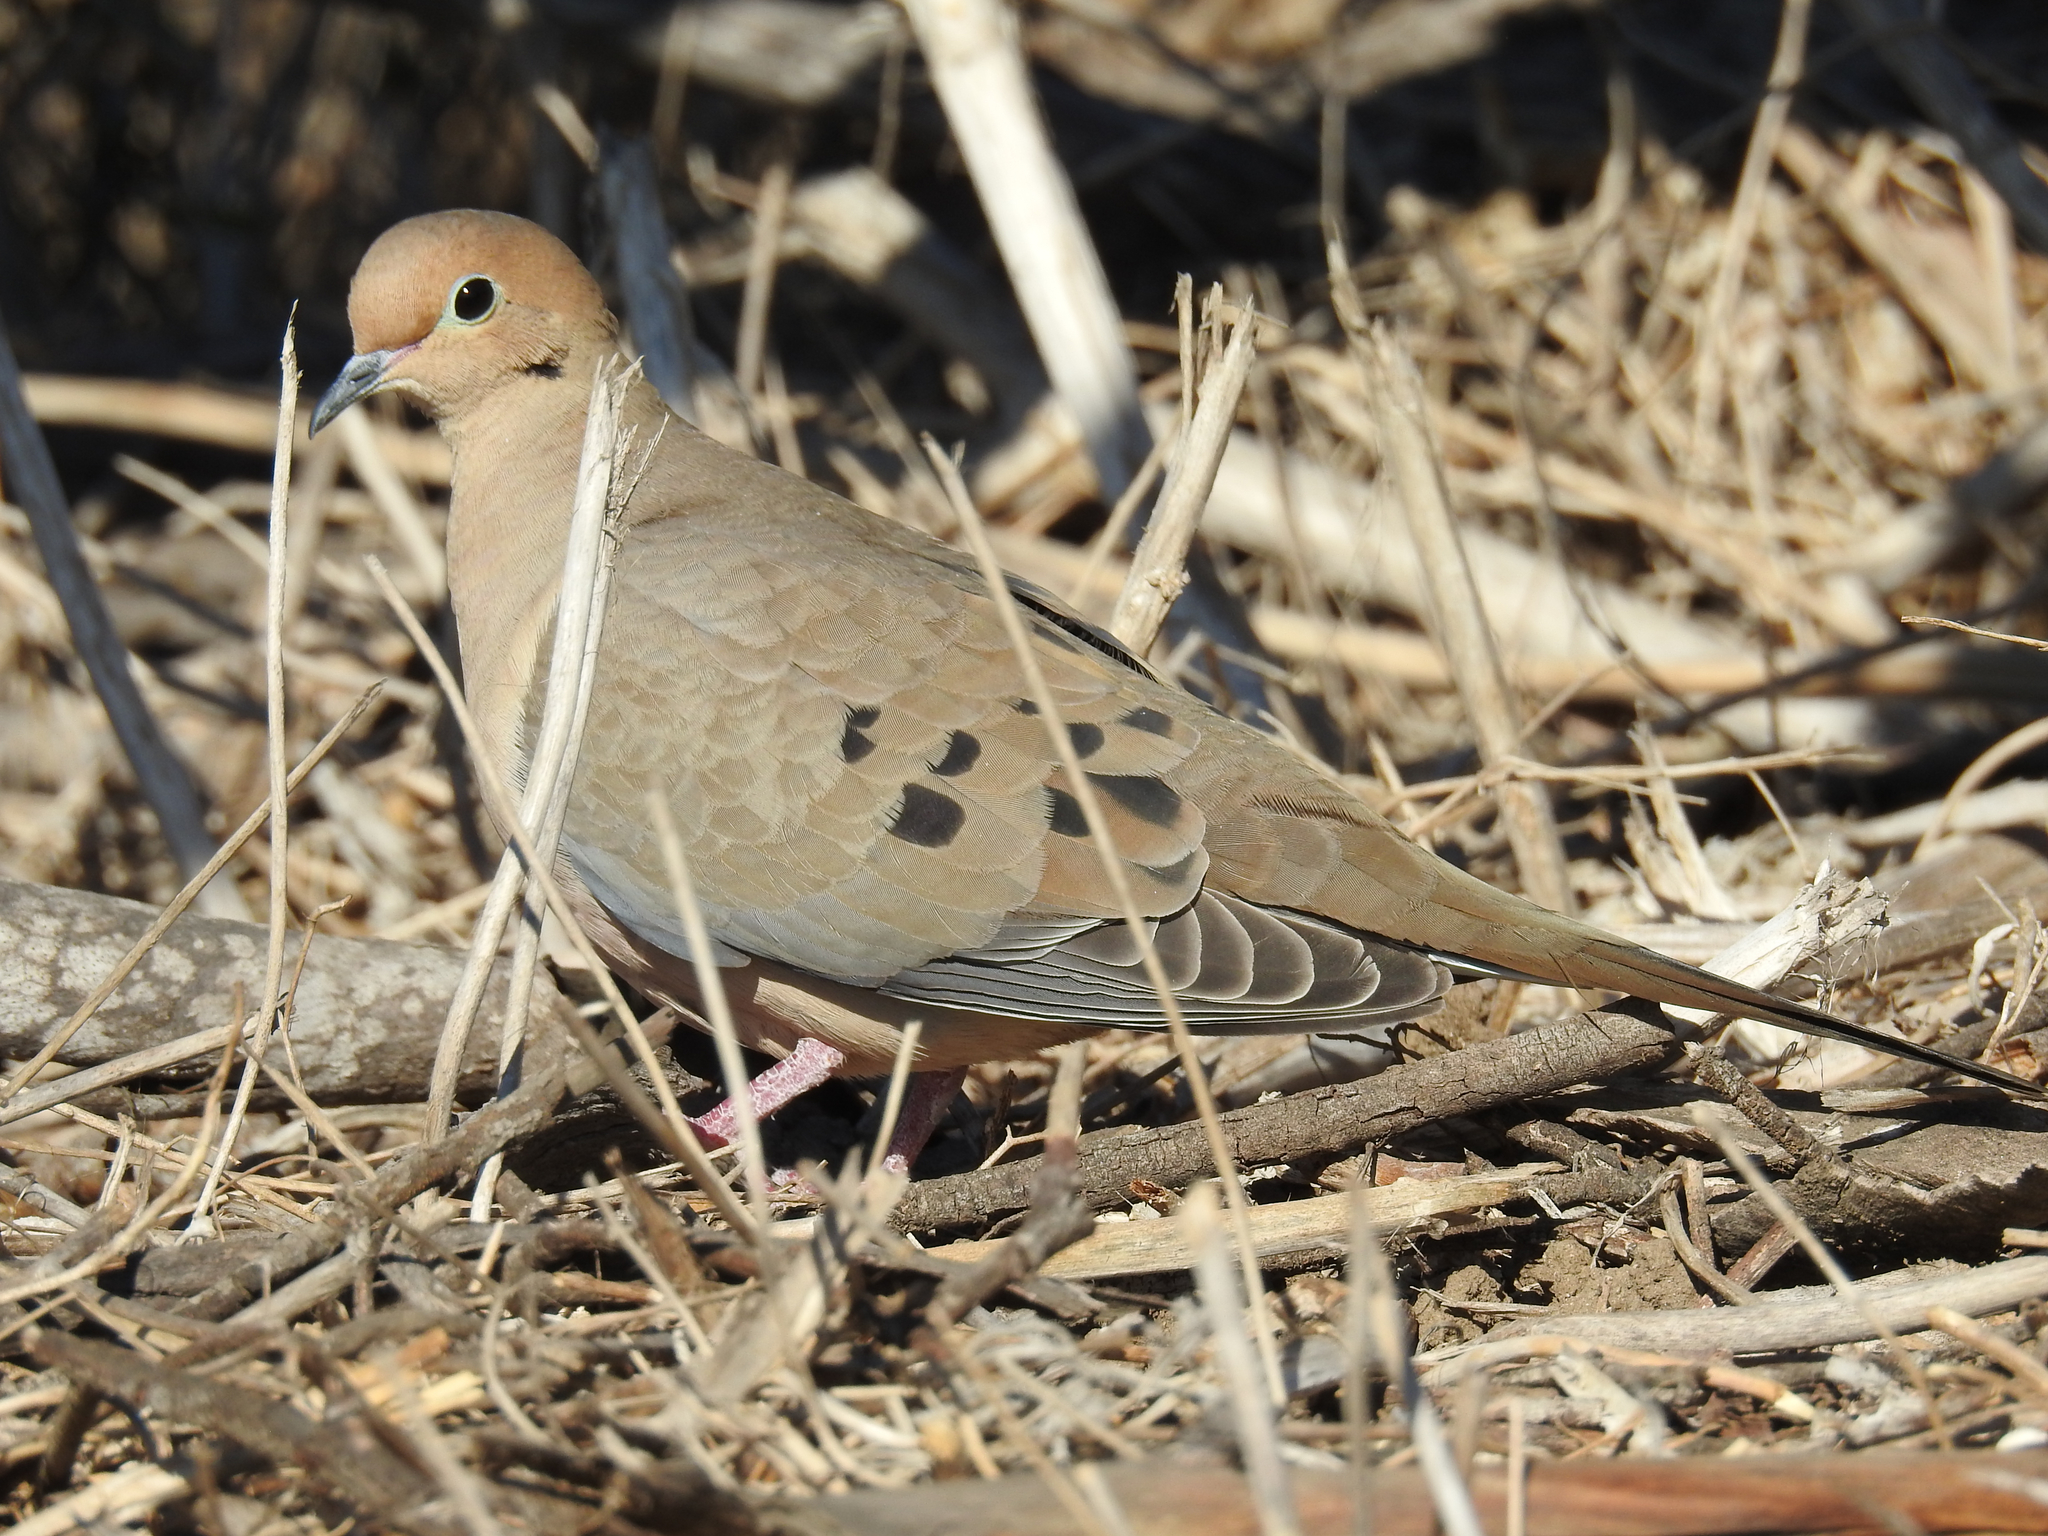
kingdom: Animalia
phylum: Chordata
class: Aves
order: Columbiformes
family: Columbidae
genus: Zenaida
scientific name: Zenaida macroura
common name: Mourning dove
